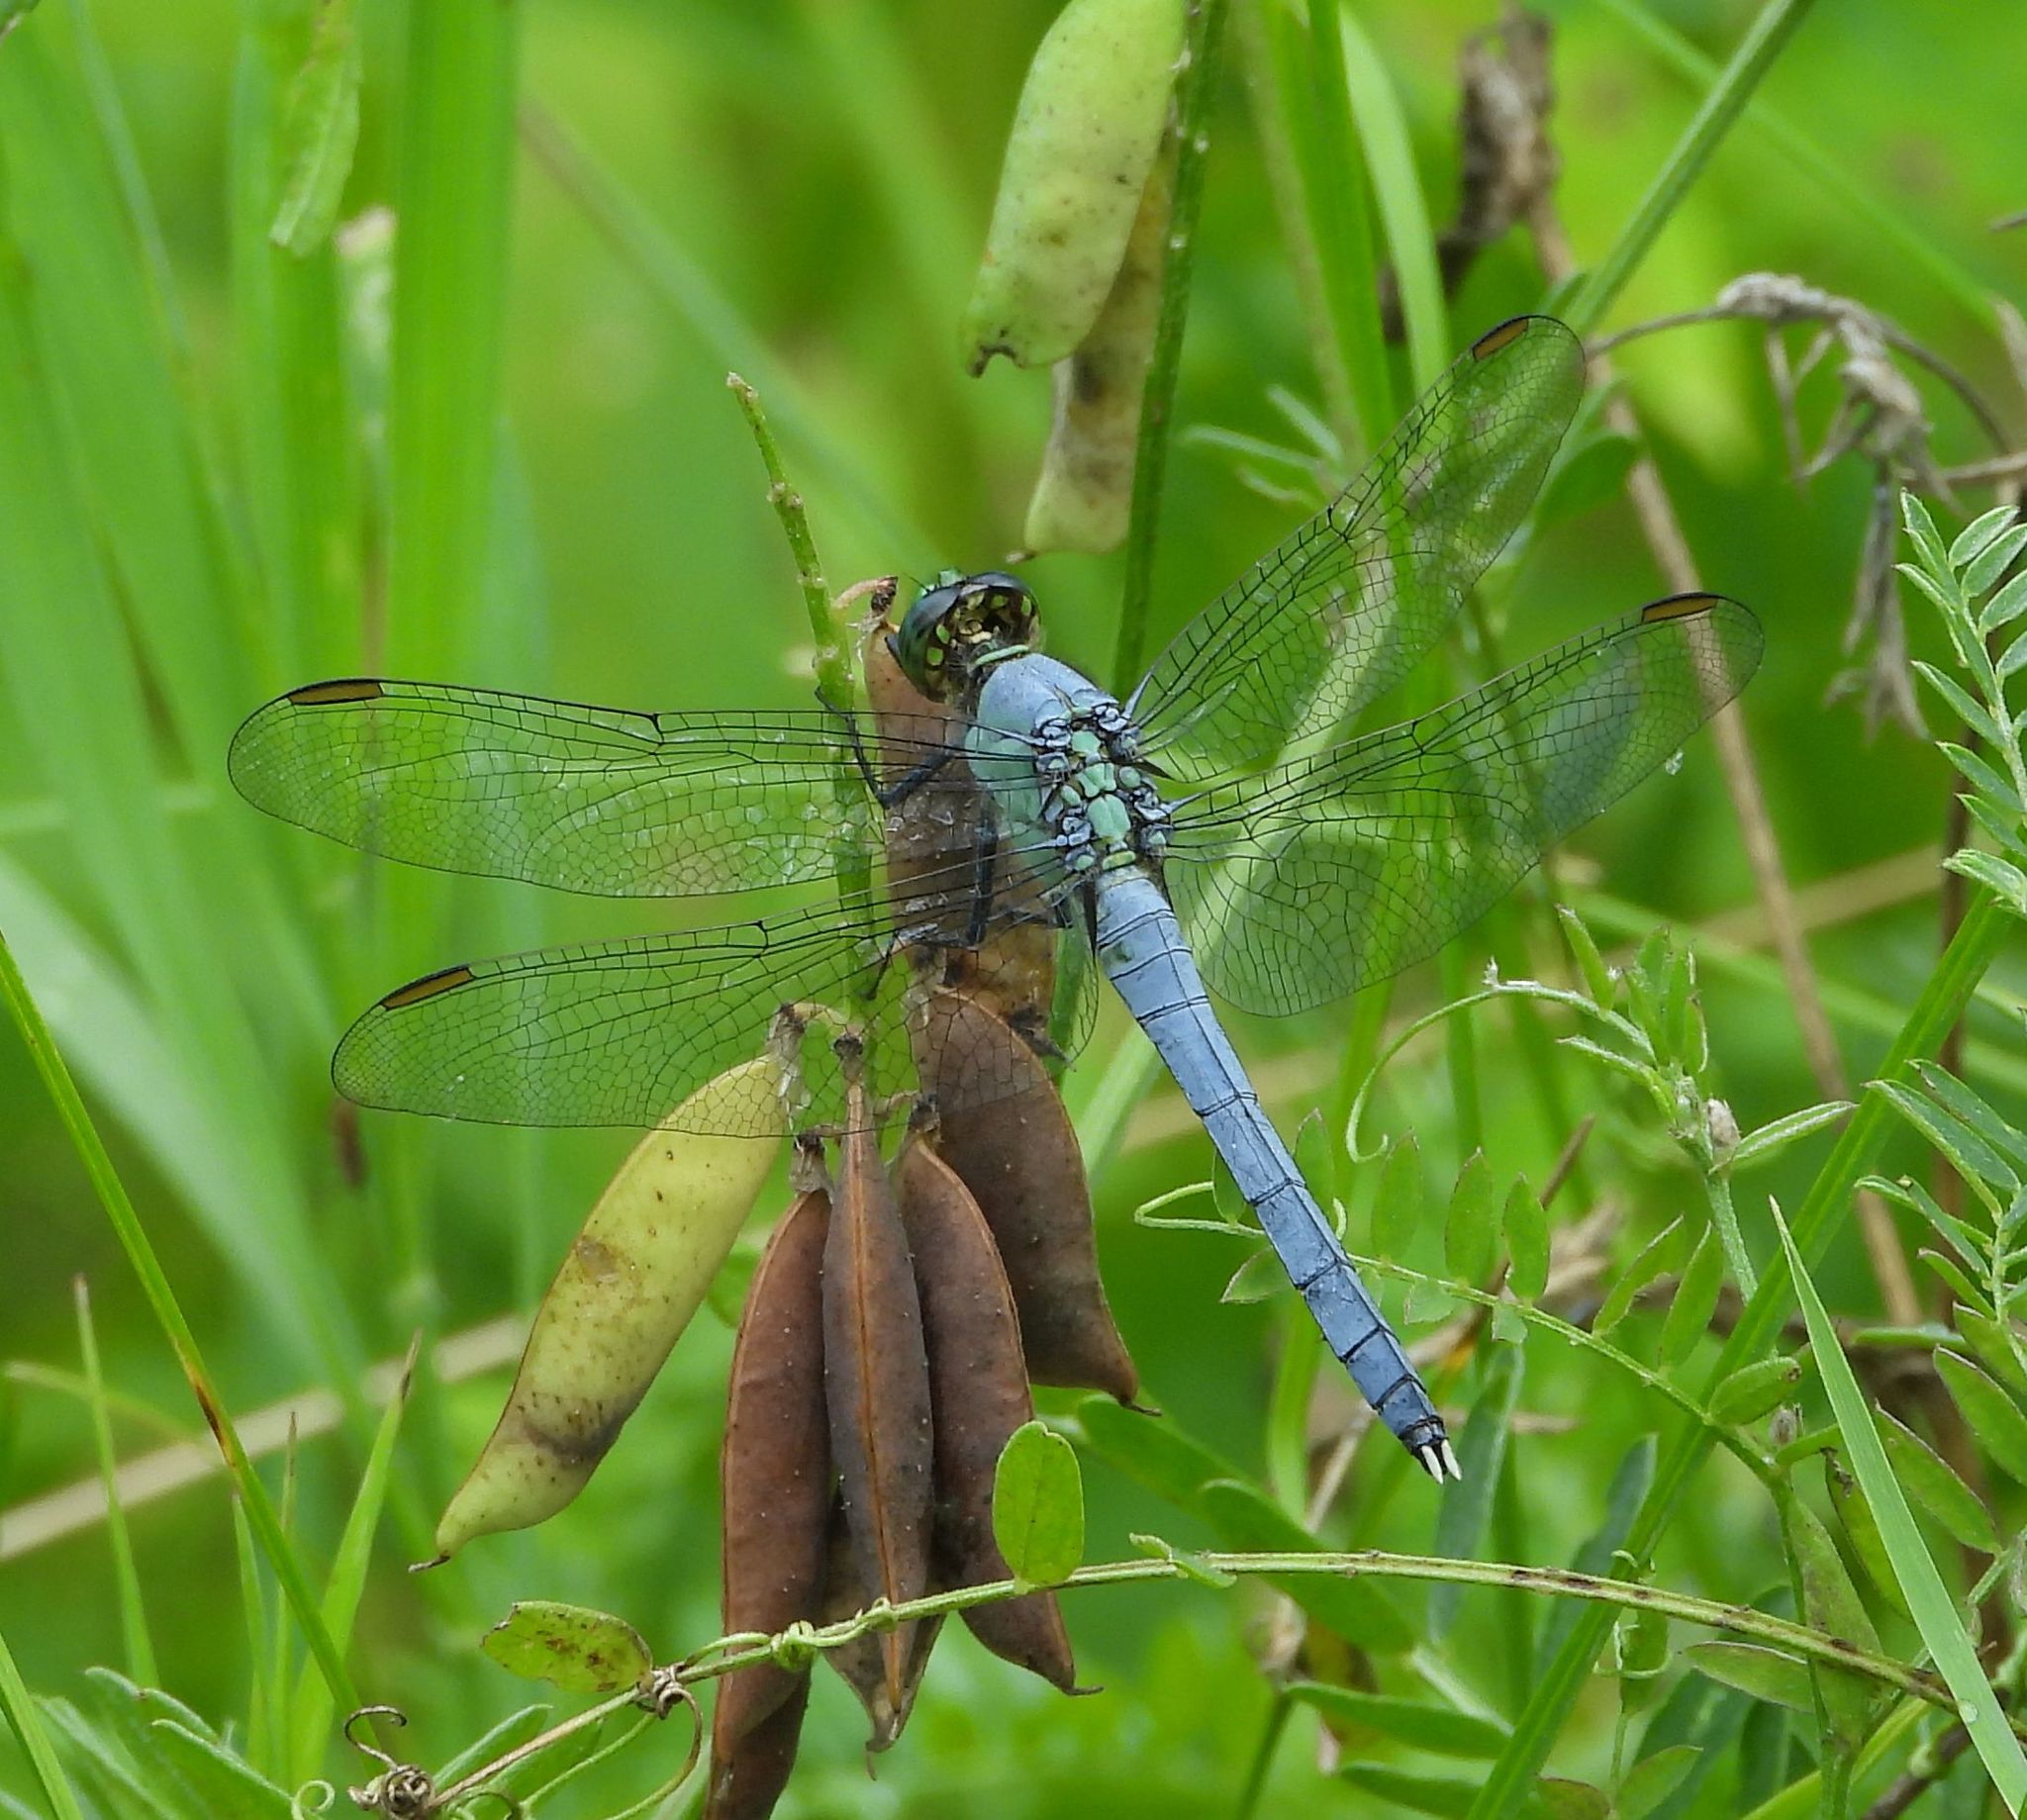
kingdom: Animalia
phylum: Arthropoda
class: Insecta
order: Odonata
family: Libellulidae
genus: Erythemis
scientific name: Erythemis simplicicollis
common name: Eastern pondhawk
